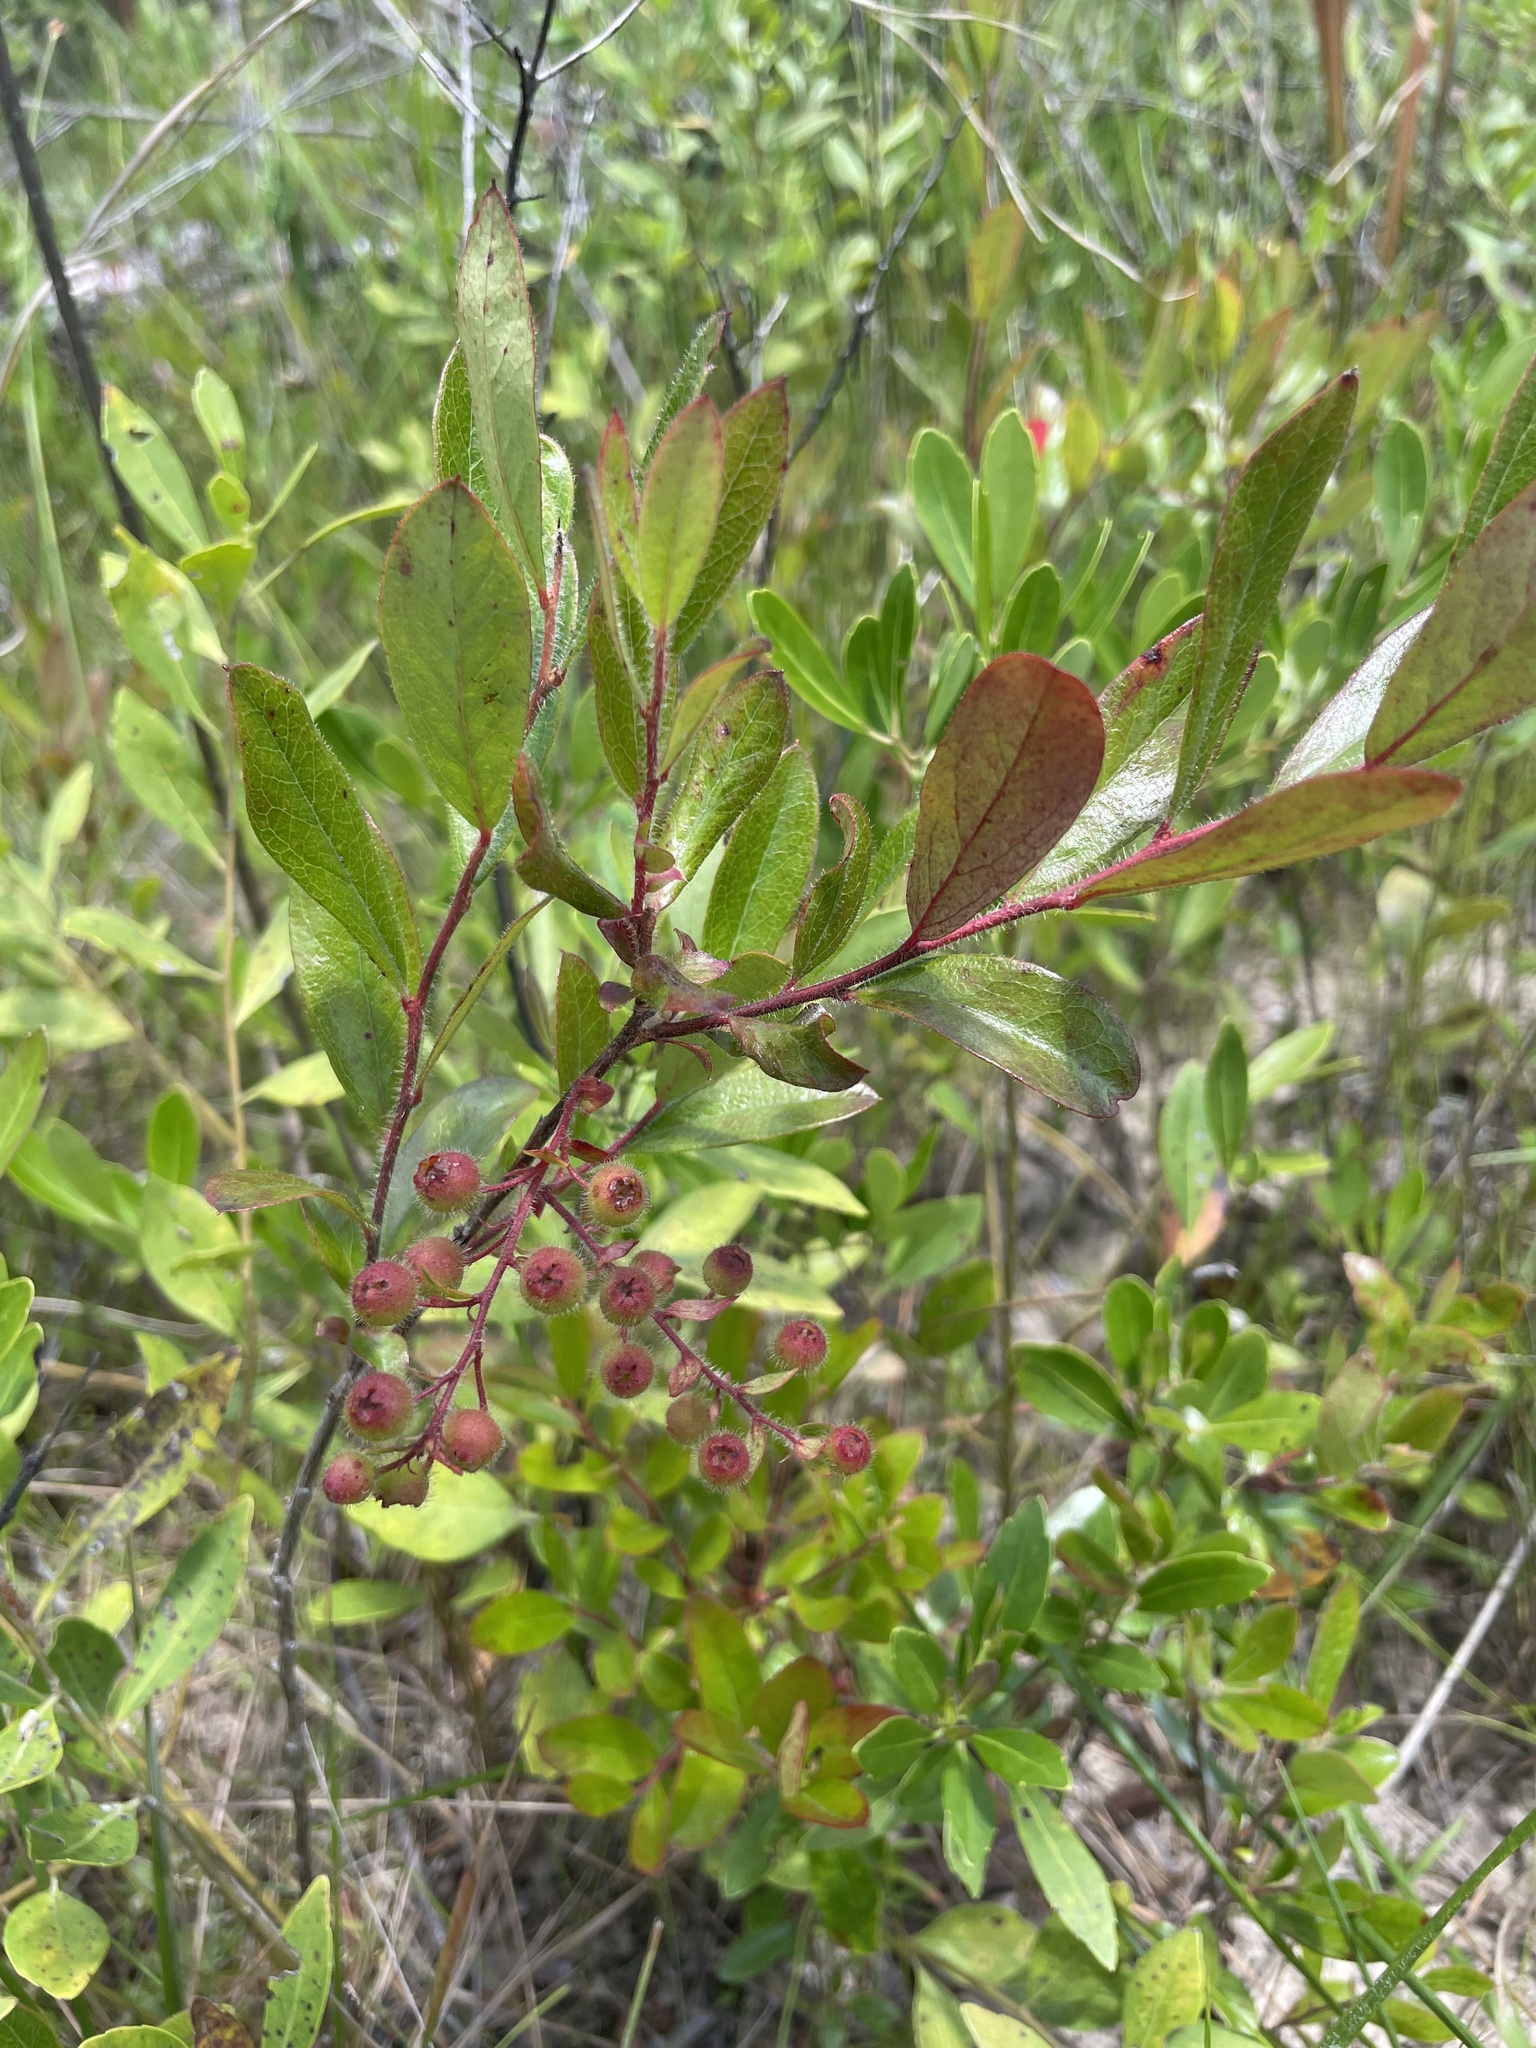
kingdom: Plantae
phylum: Tracheophyta
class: Magnoliopsida
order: Ericales
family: Ericaceae
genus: Gaylussacia
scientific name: Gaylussacia mosieri
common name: Hirsute huckleberry
